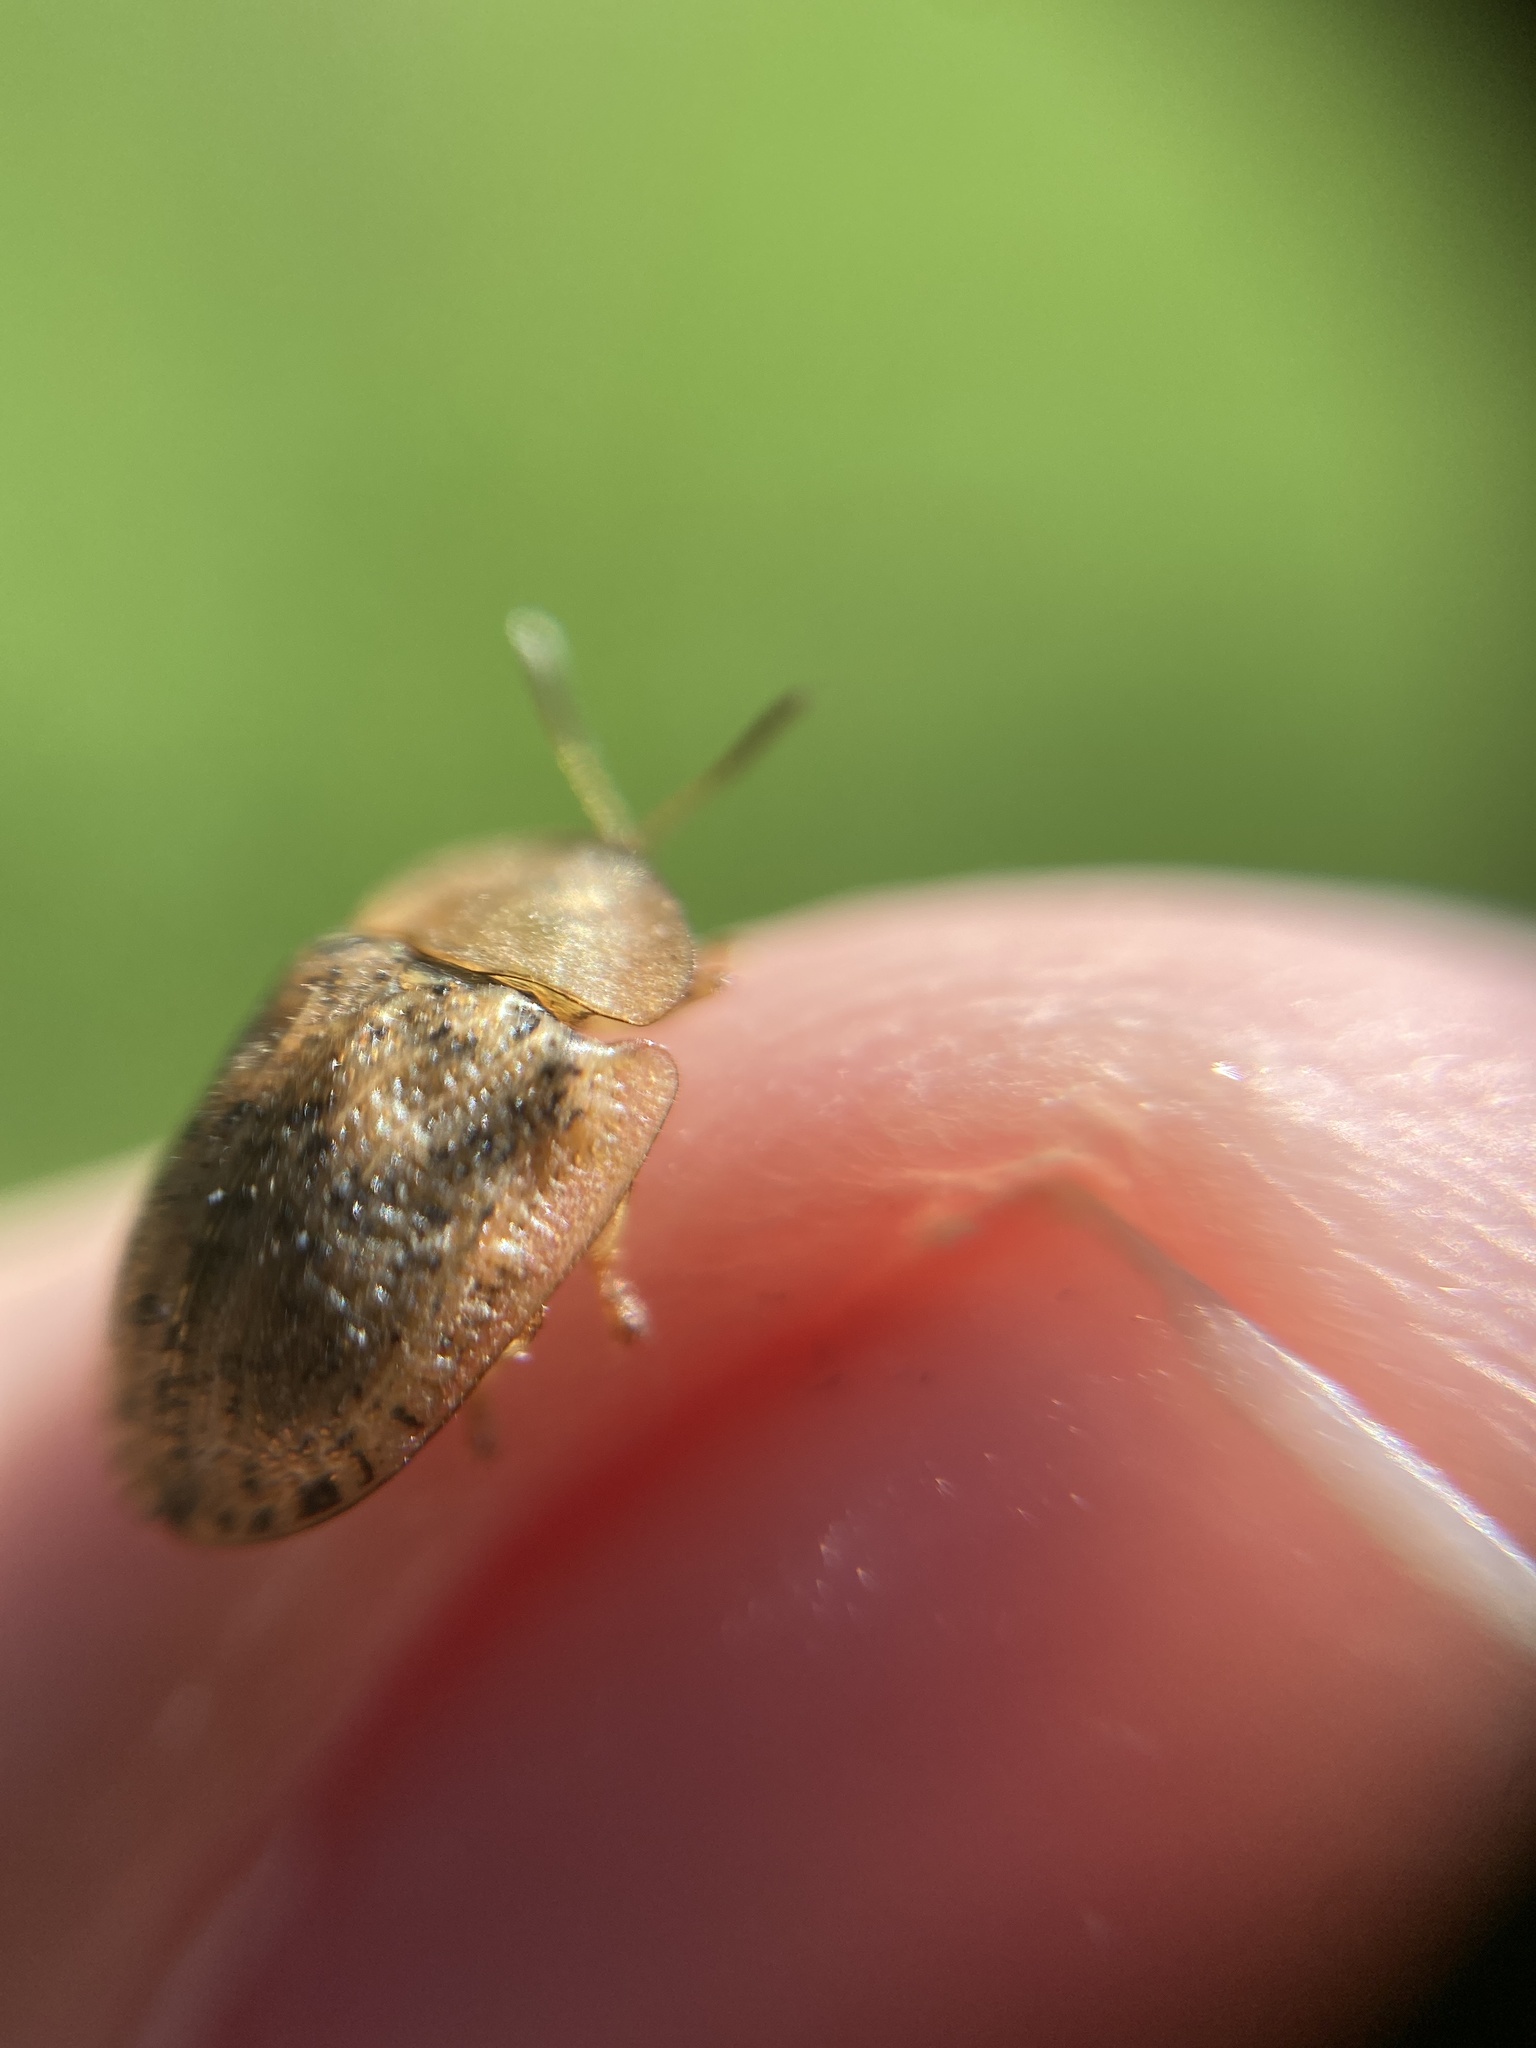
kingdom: Animalia
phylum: Arthropoda
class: Insecta
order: Coleoptera
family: Chrysomelidae
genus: Cassida
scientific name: Cassida nebulosa
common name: Beet tortoise beetle
